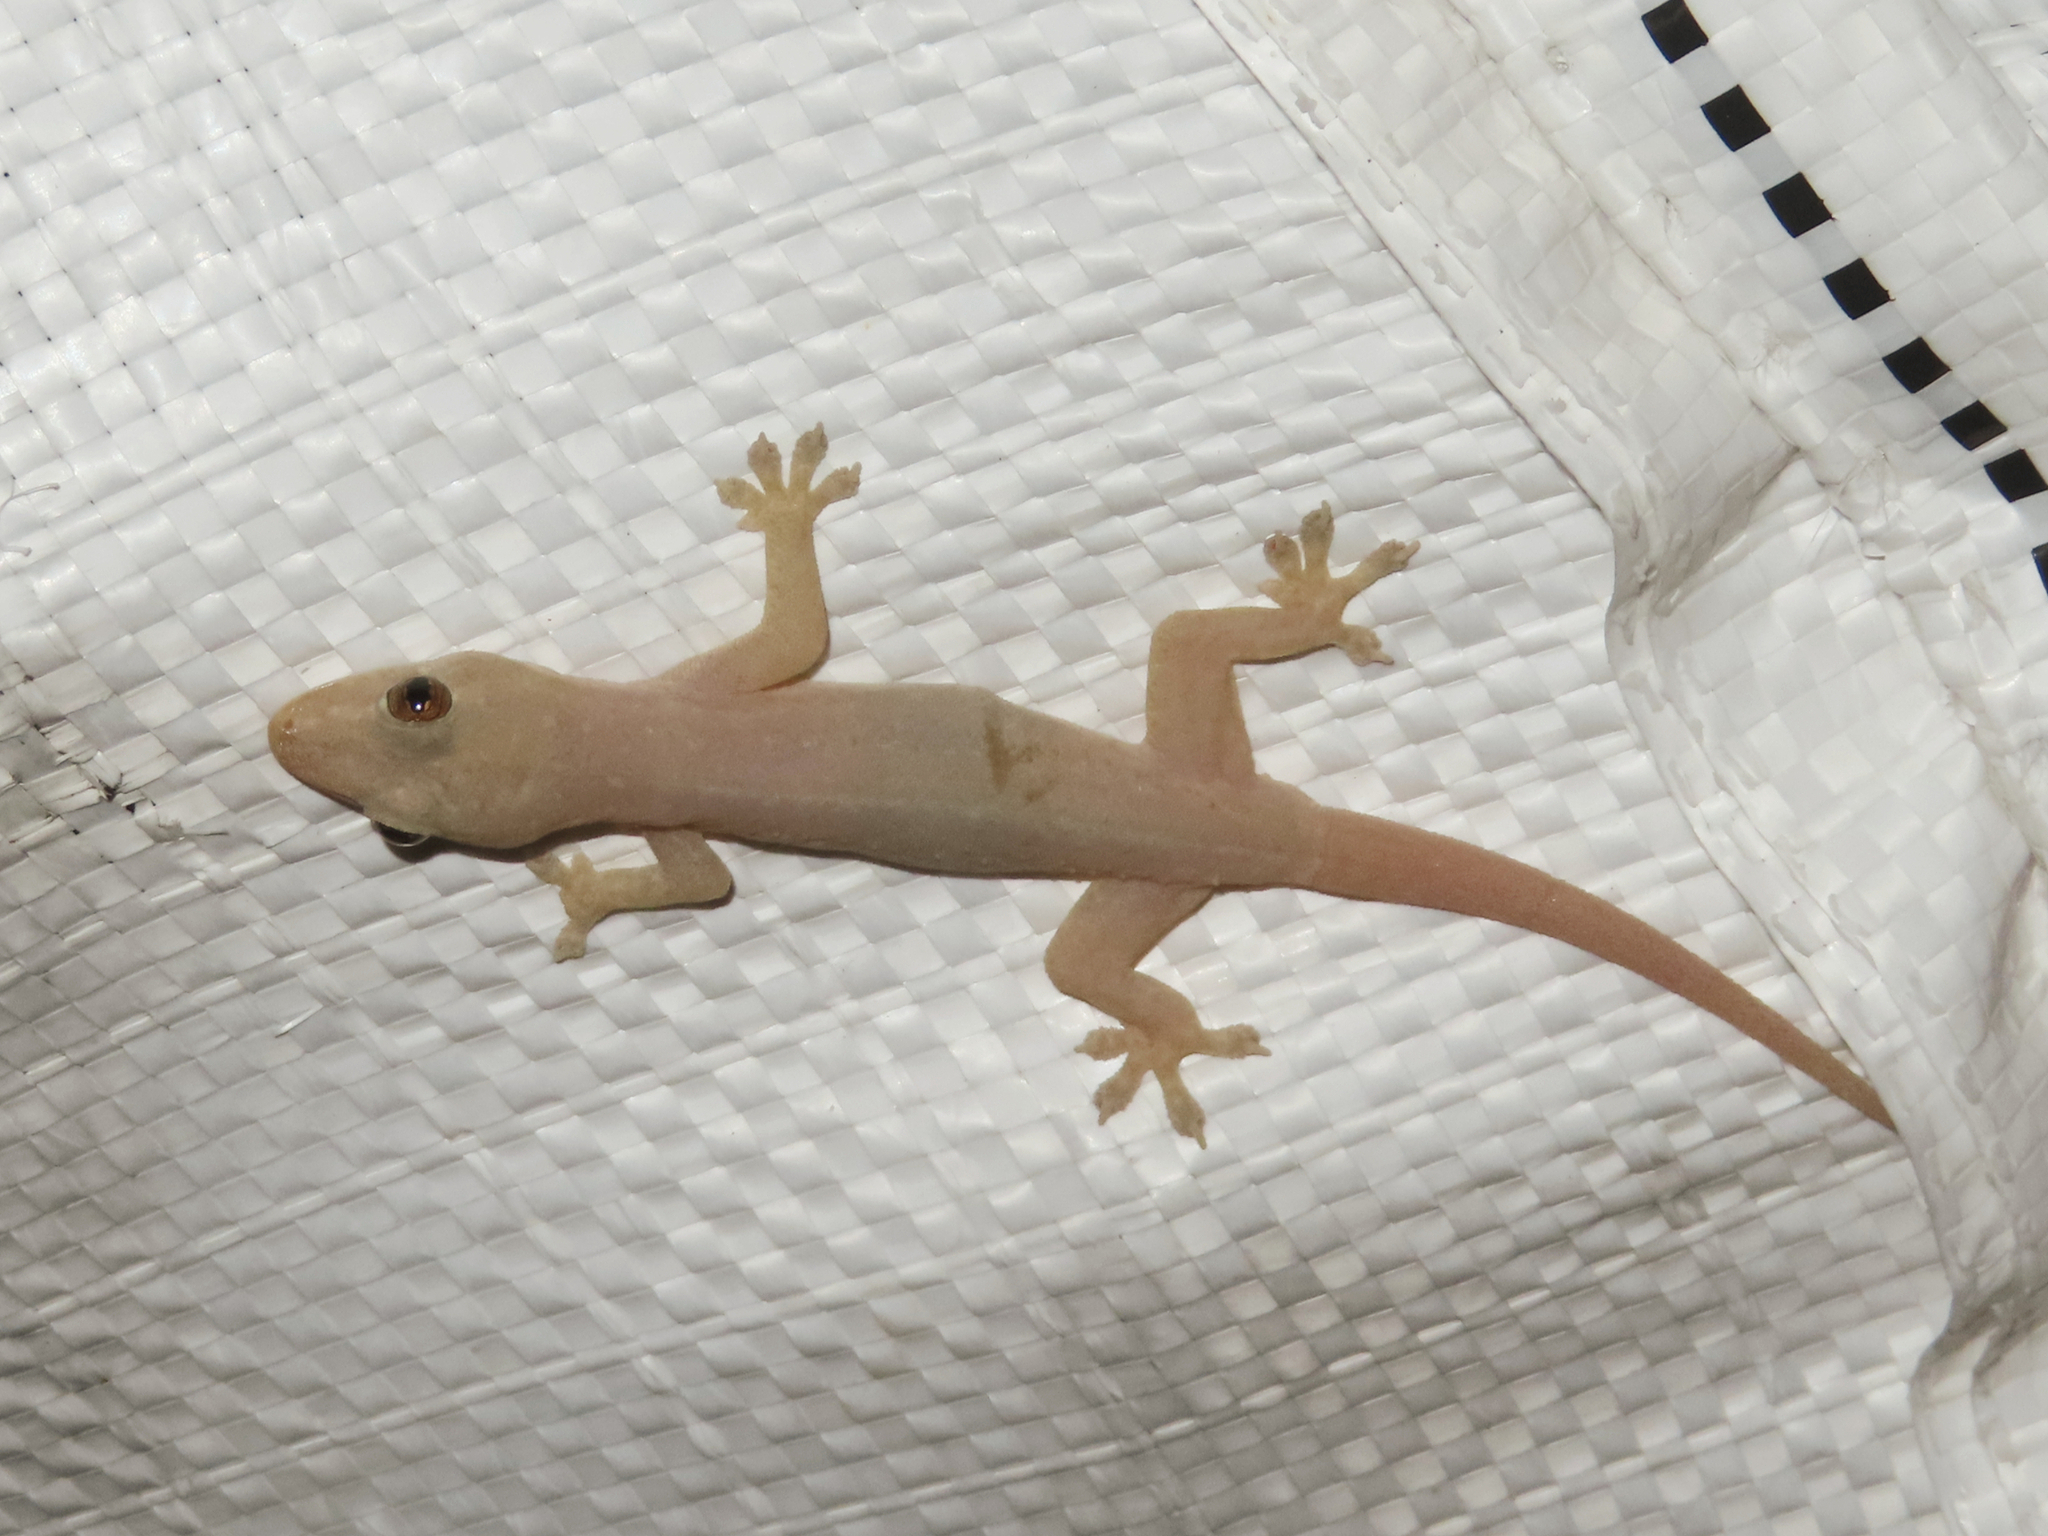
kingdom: Animalia
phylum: Chordata
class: Squamata
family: Gekkonidae
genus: Hemidactylus
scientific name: Hemidactylus frenatus
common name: Common house gecko
